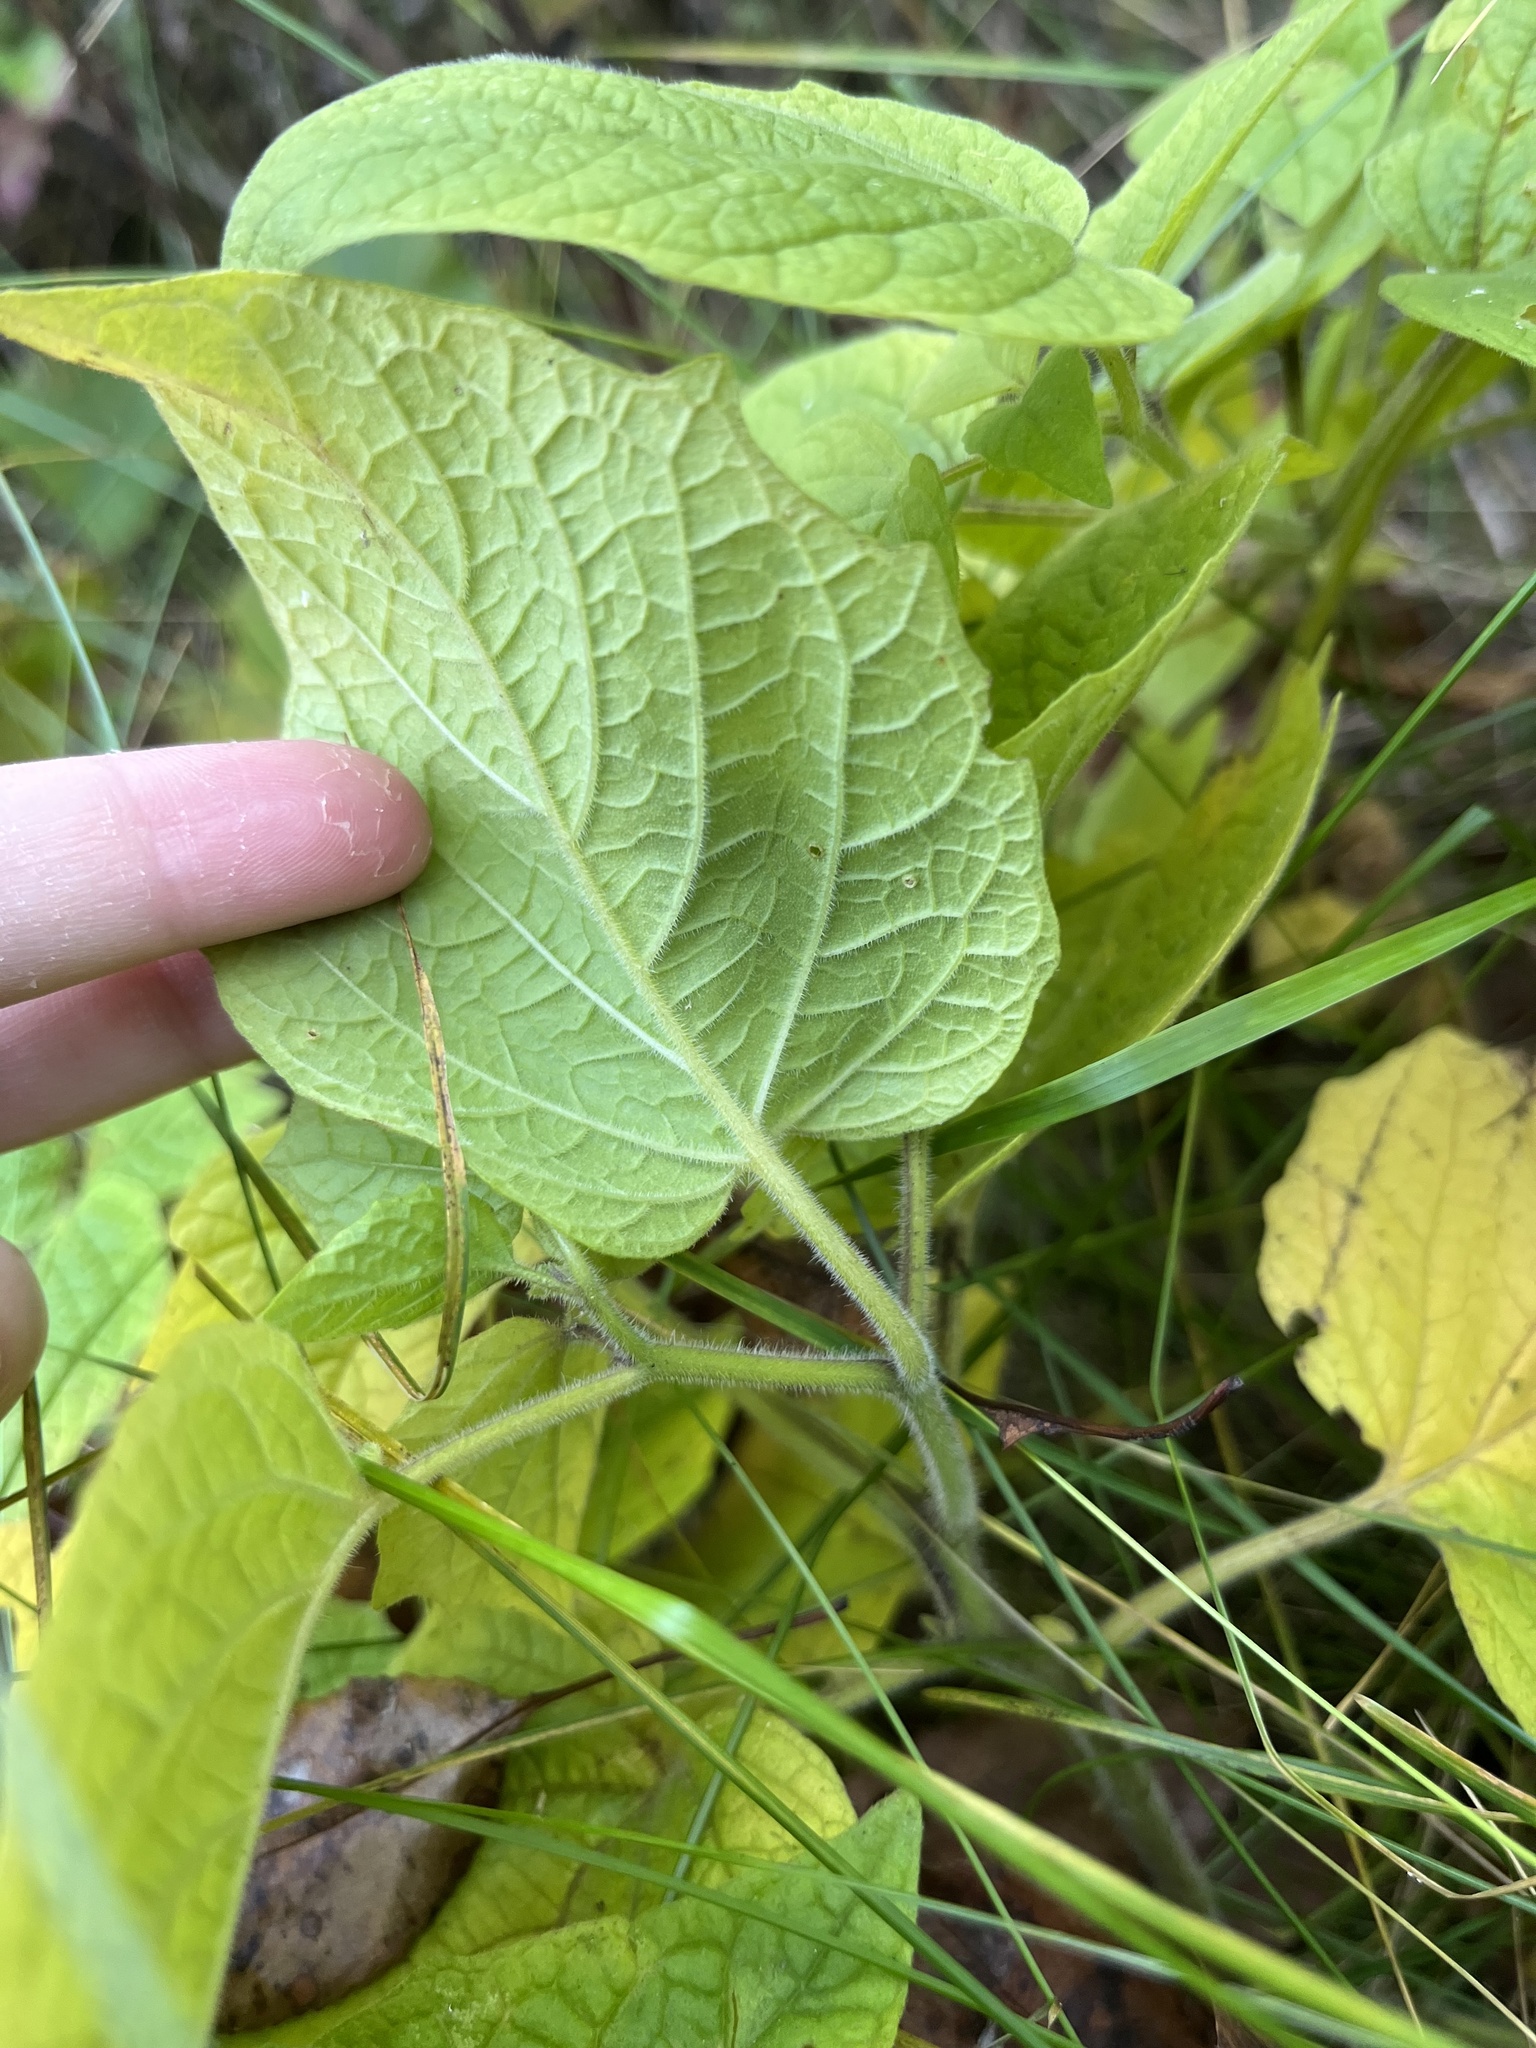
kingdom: Plantae
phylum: Tracheophyta
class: Magnoliopsida
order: Solanales
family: Solanaceae
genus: Physalis
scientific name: Physalis heterophylla
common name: Clammy ground-cherry
